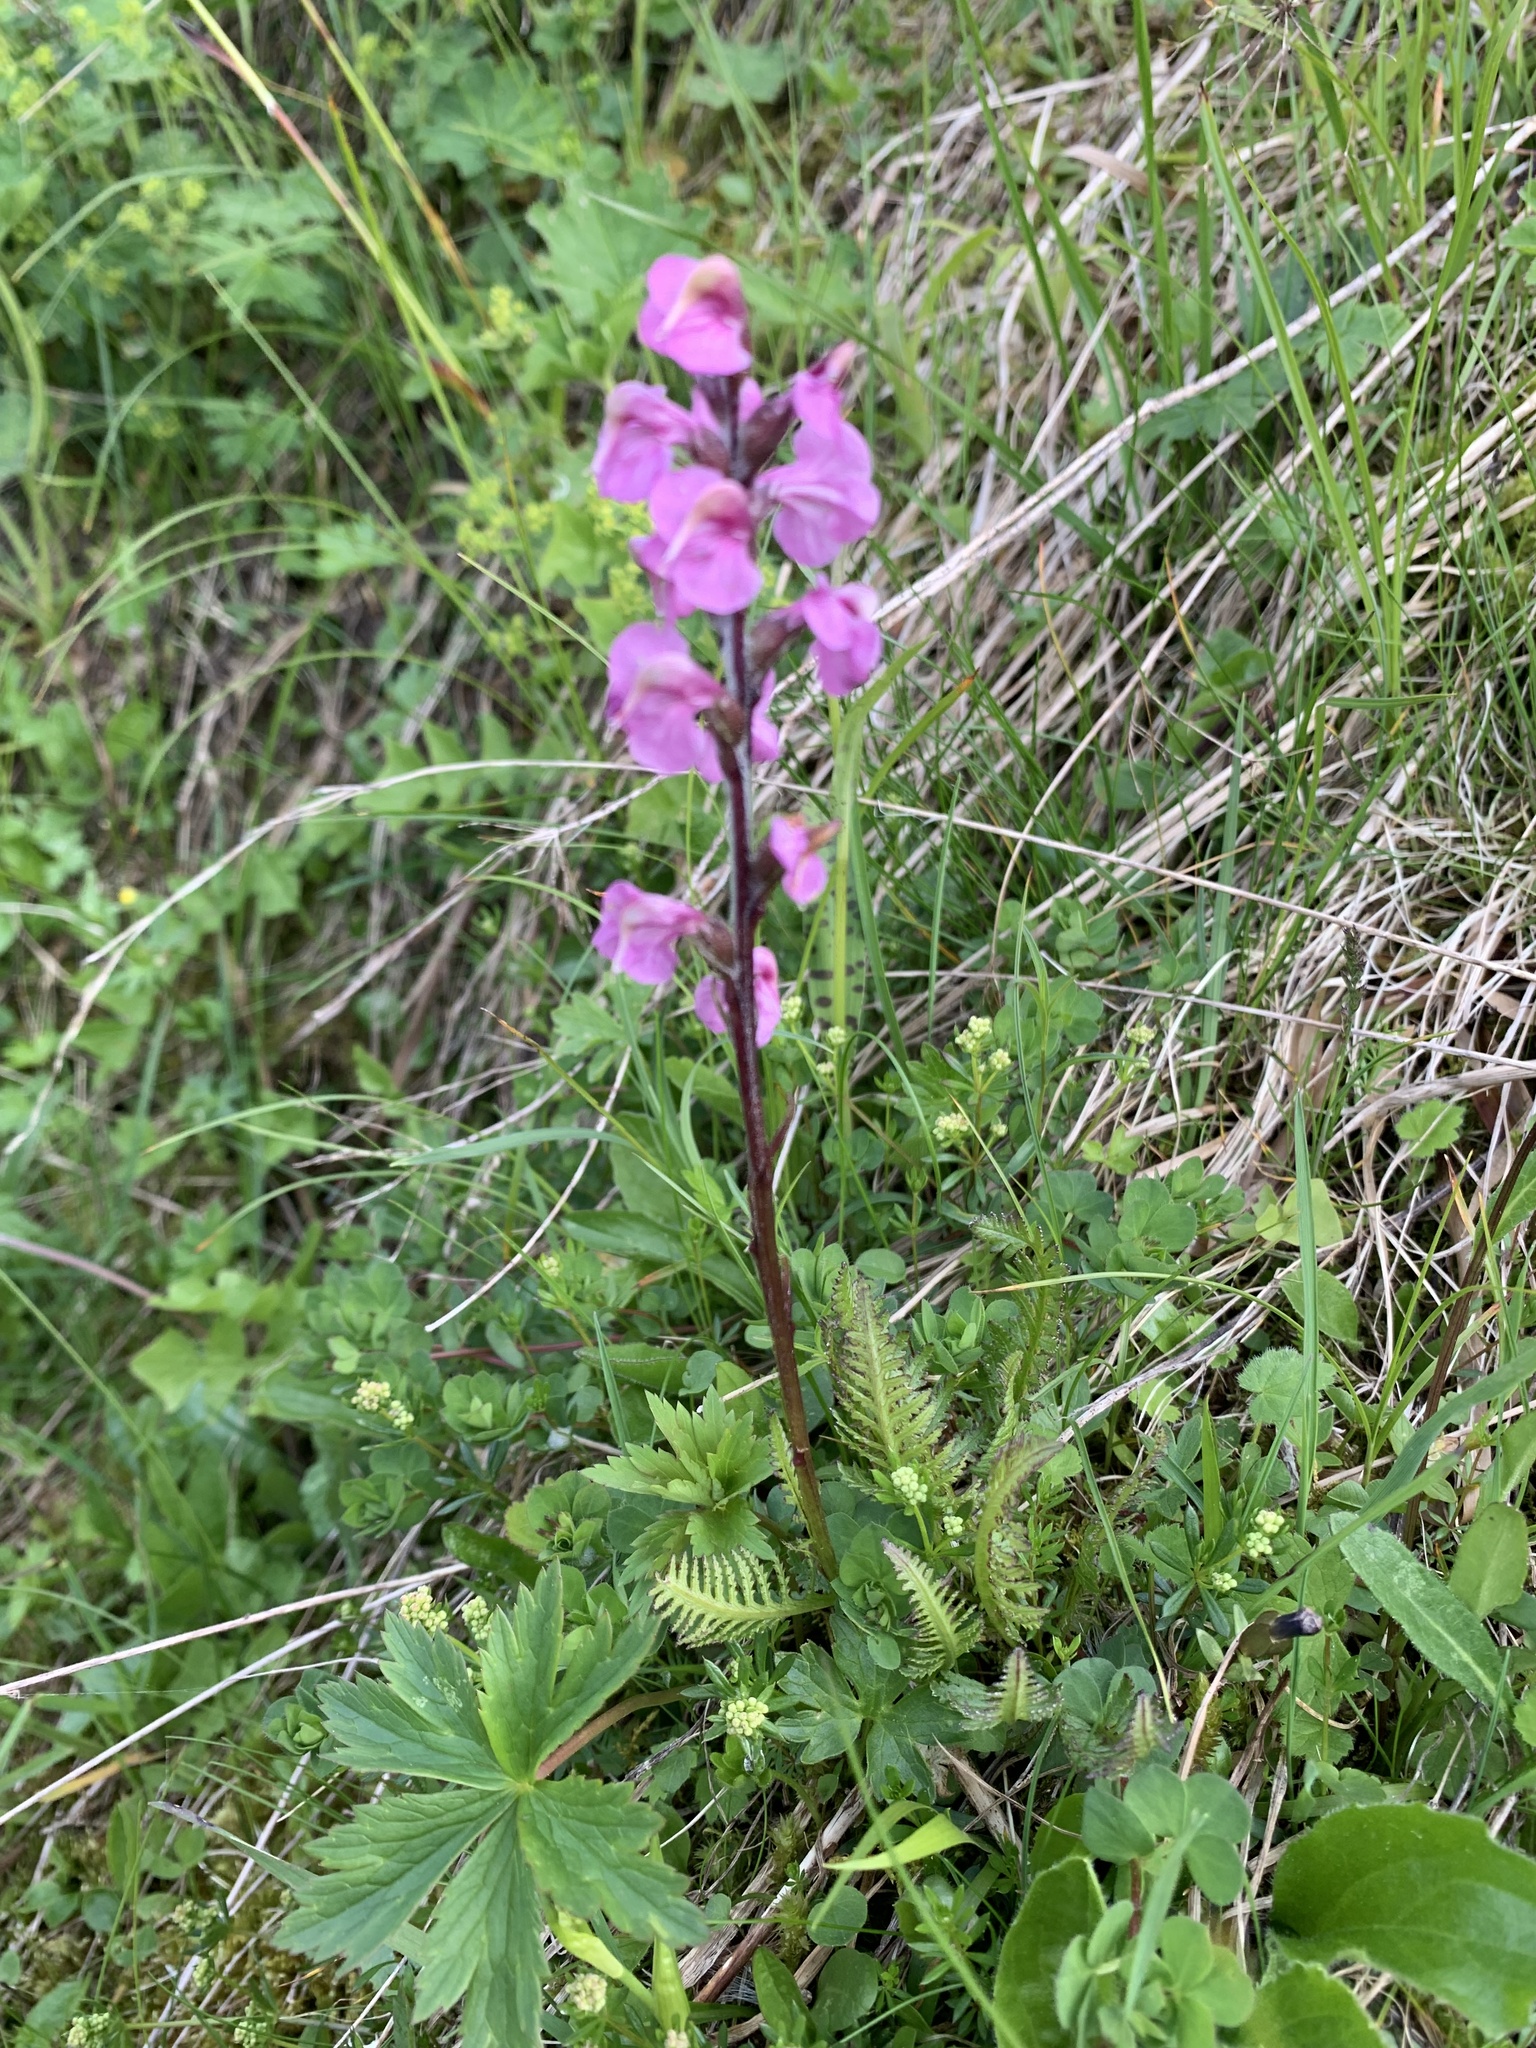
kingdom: Plantae
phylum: Tracheophyta
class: Magnoliopsida
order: Lamiales
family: Orobanchaceae
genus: Pedicularis
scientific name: Pedicularis rostratospicata
